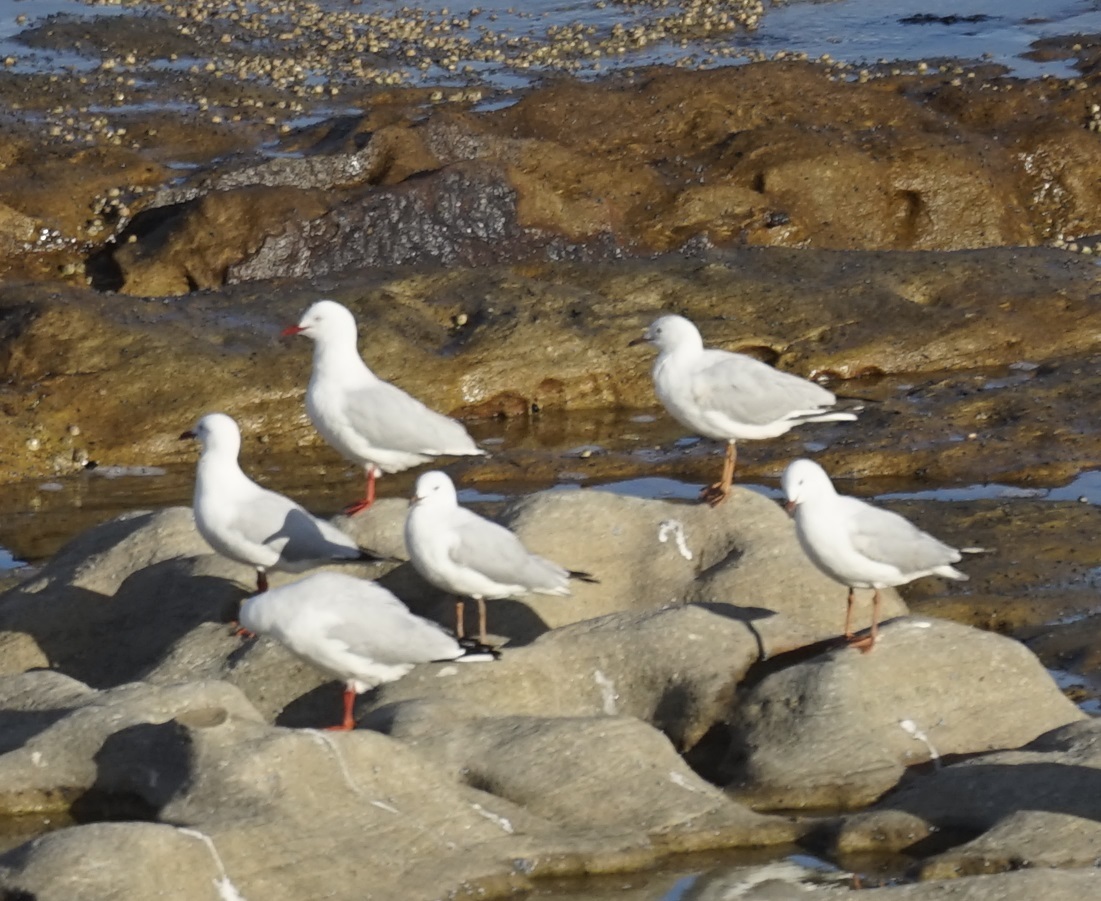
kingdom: Animalia
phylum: Chordata
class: Aves
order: Charadriiformes
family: Laridae
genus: Chroicocephalus
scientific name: Chroicocephalus novaehollandiae
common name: Silver gull
